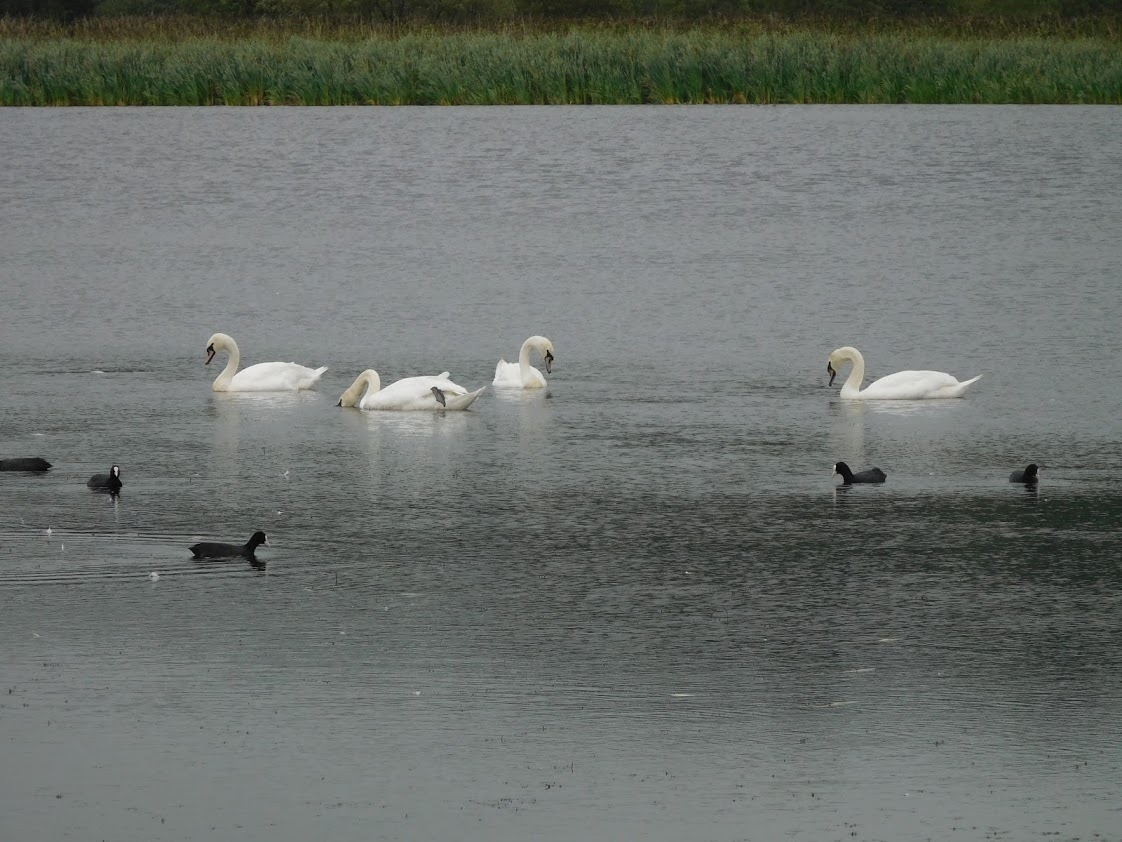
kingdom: Animalia
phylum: Chordata
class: Aves
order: Anseriformes
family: Anatidae
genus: Cygnus
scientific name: Cygnus olor
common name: Mute swan
